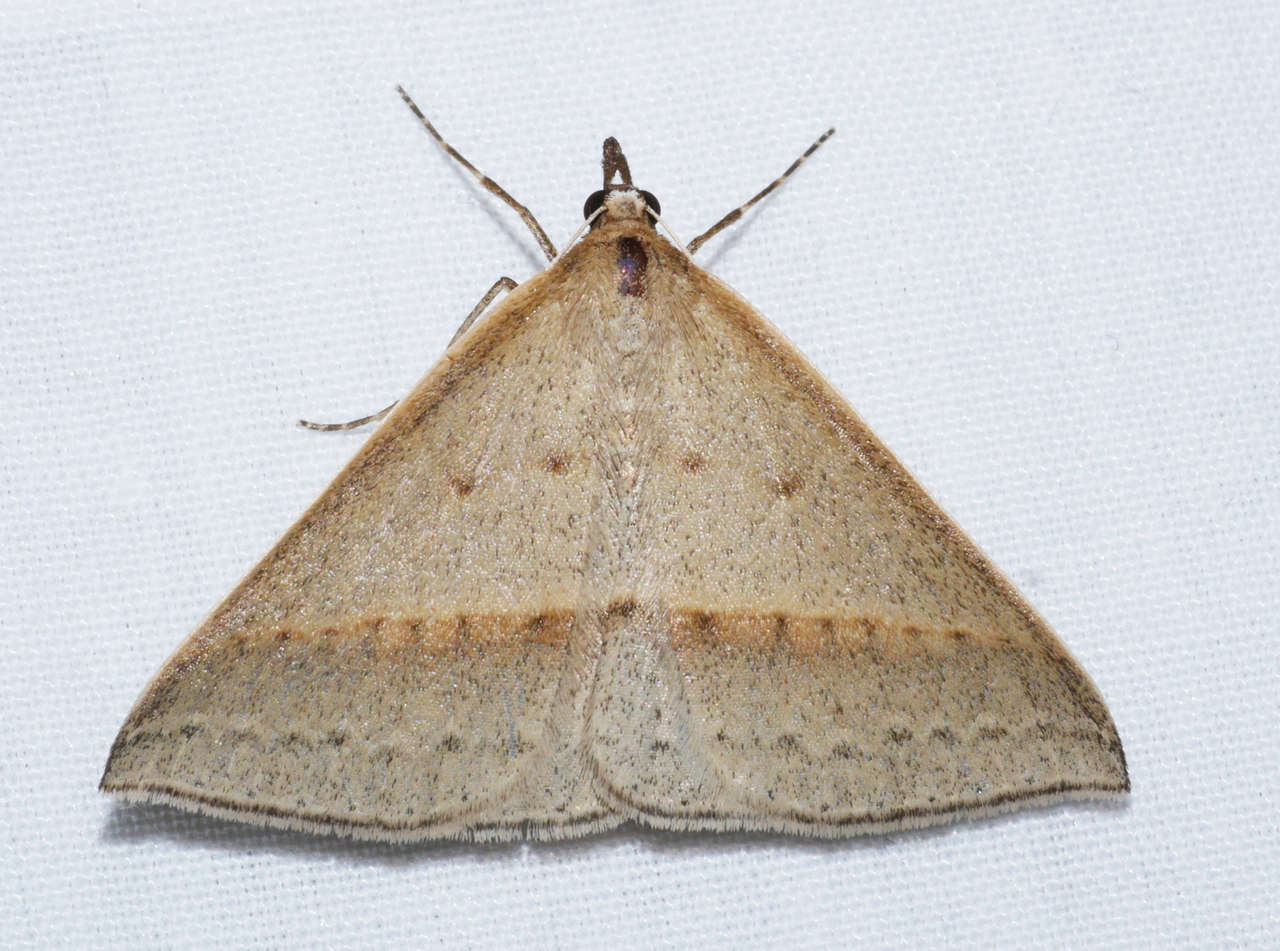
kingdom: Animalia
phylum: Arthropoda
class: Insecta
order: Lepidoptera
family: Geometridae
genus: Epidesmia
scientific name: Epidesmia tryxaria
